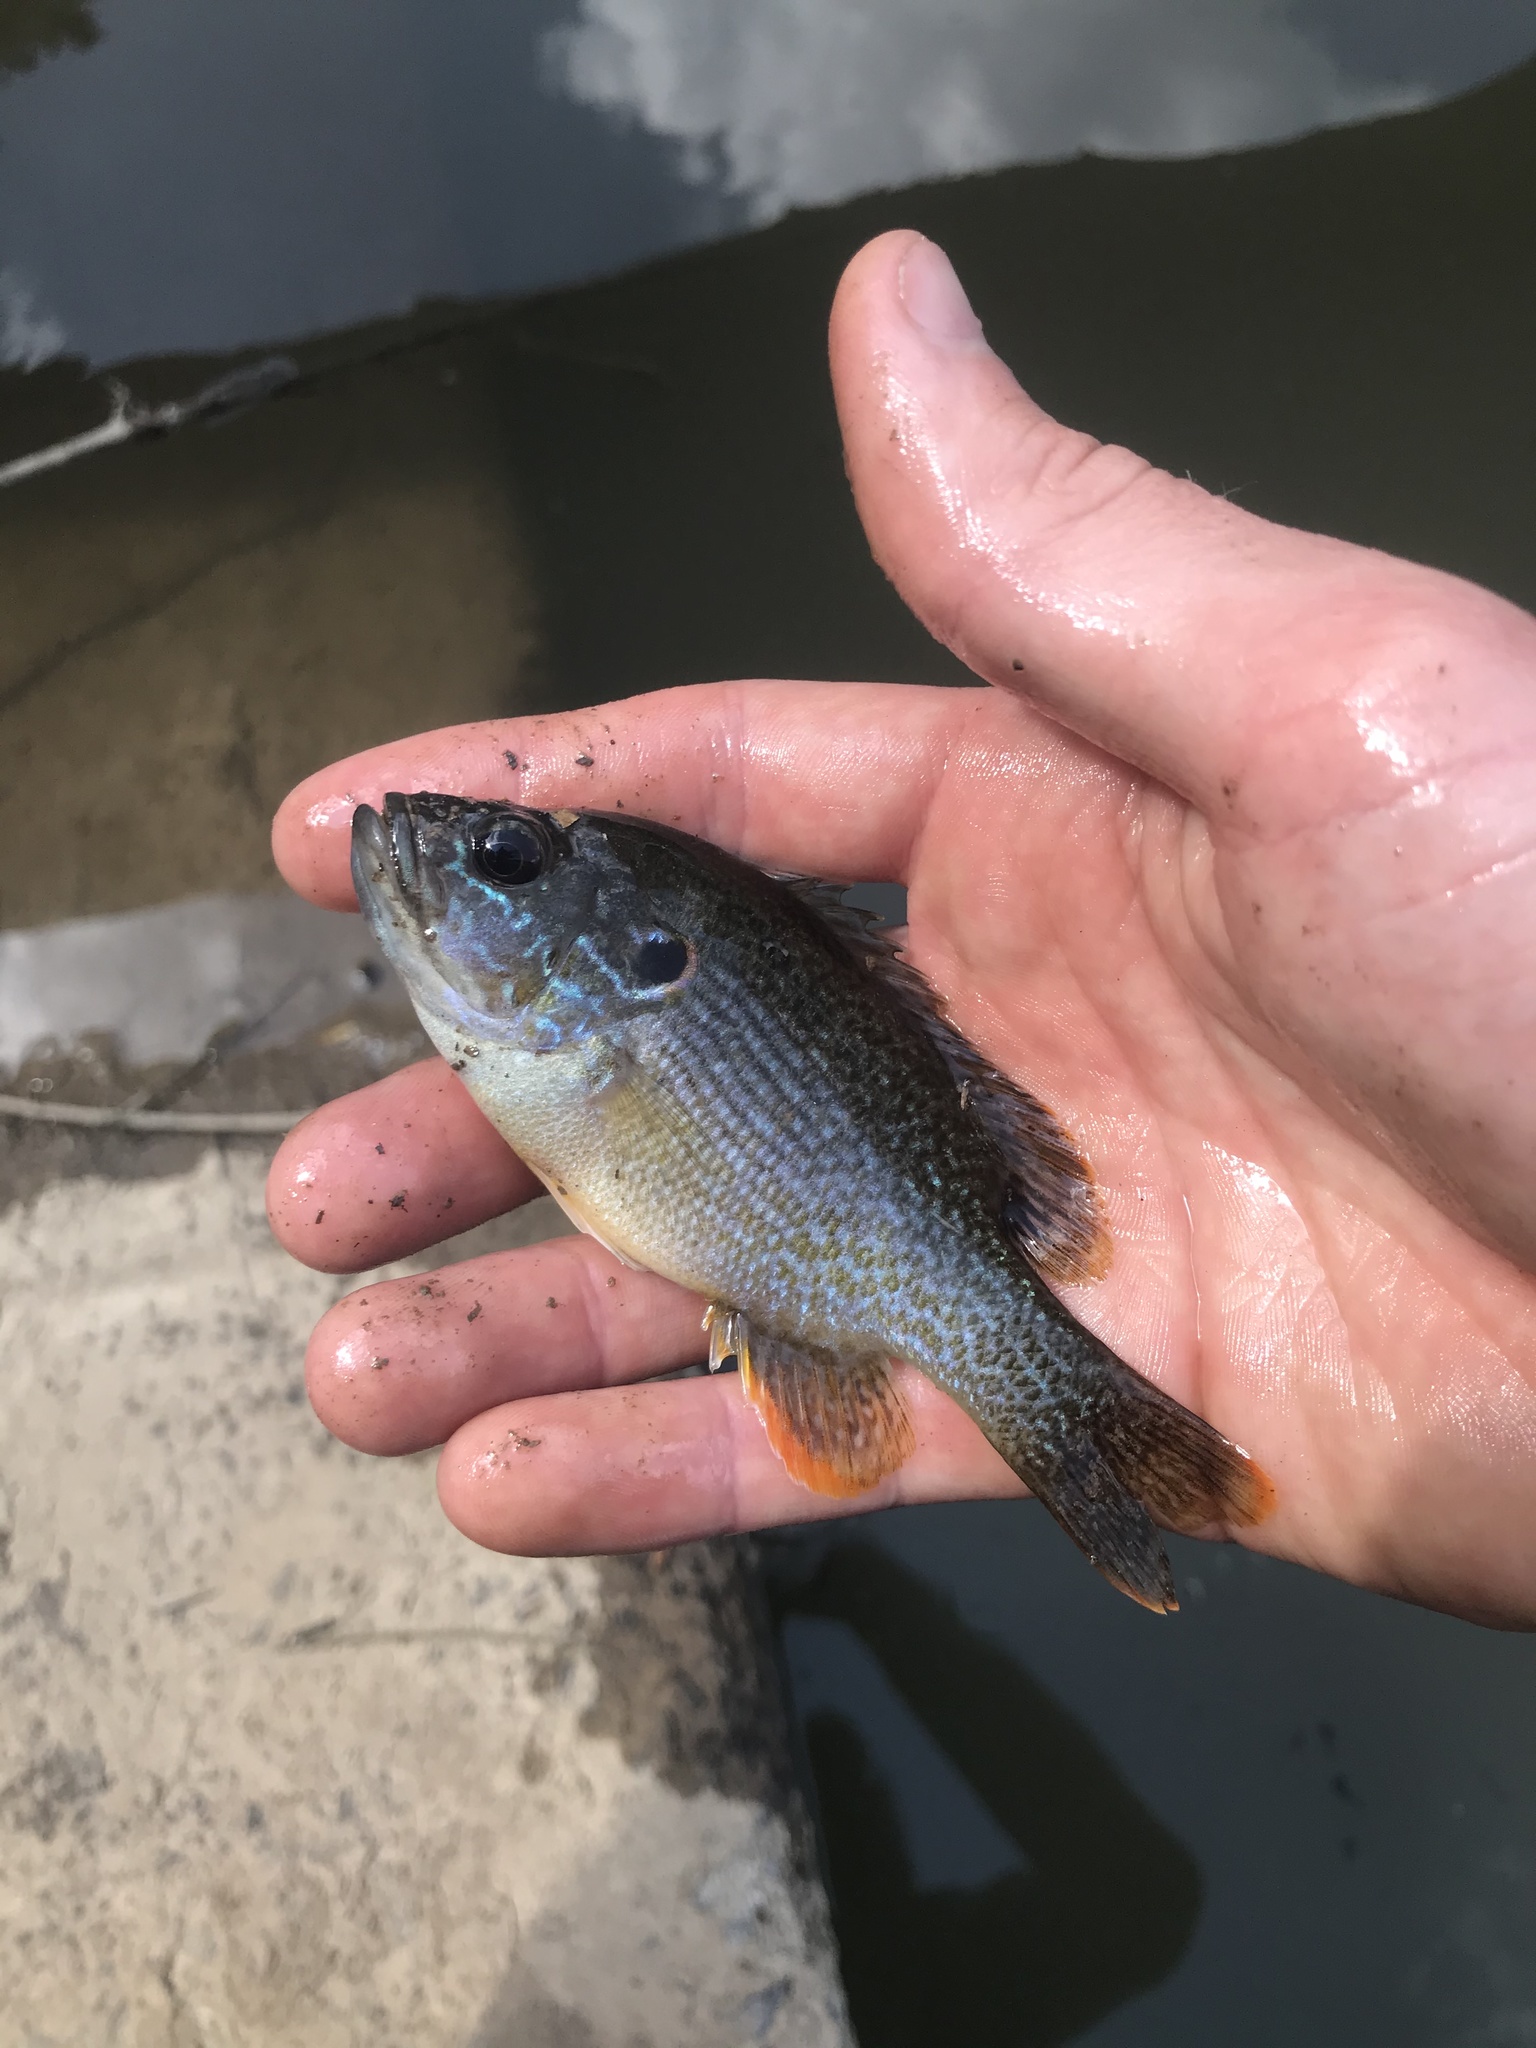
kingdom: Animalia
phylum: Chordata
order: Perciformes
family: Centrarchidae
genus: Lepomis
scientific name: Lepomis cyanellus
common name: Green sunfish
